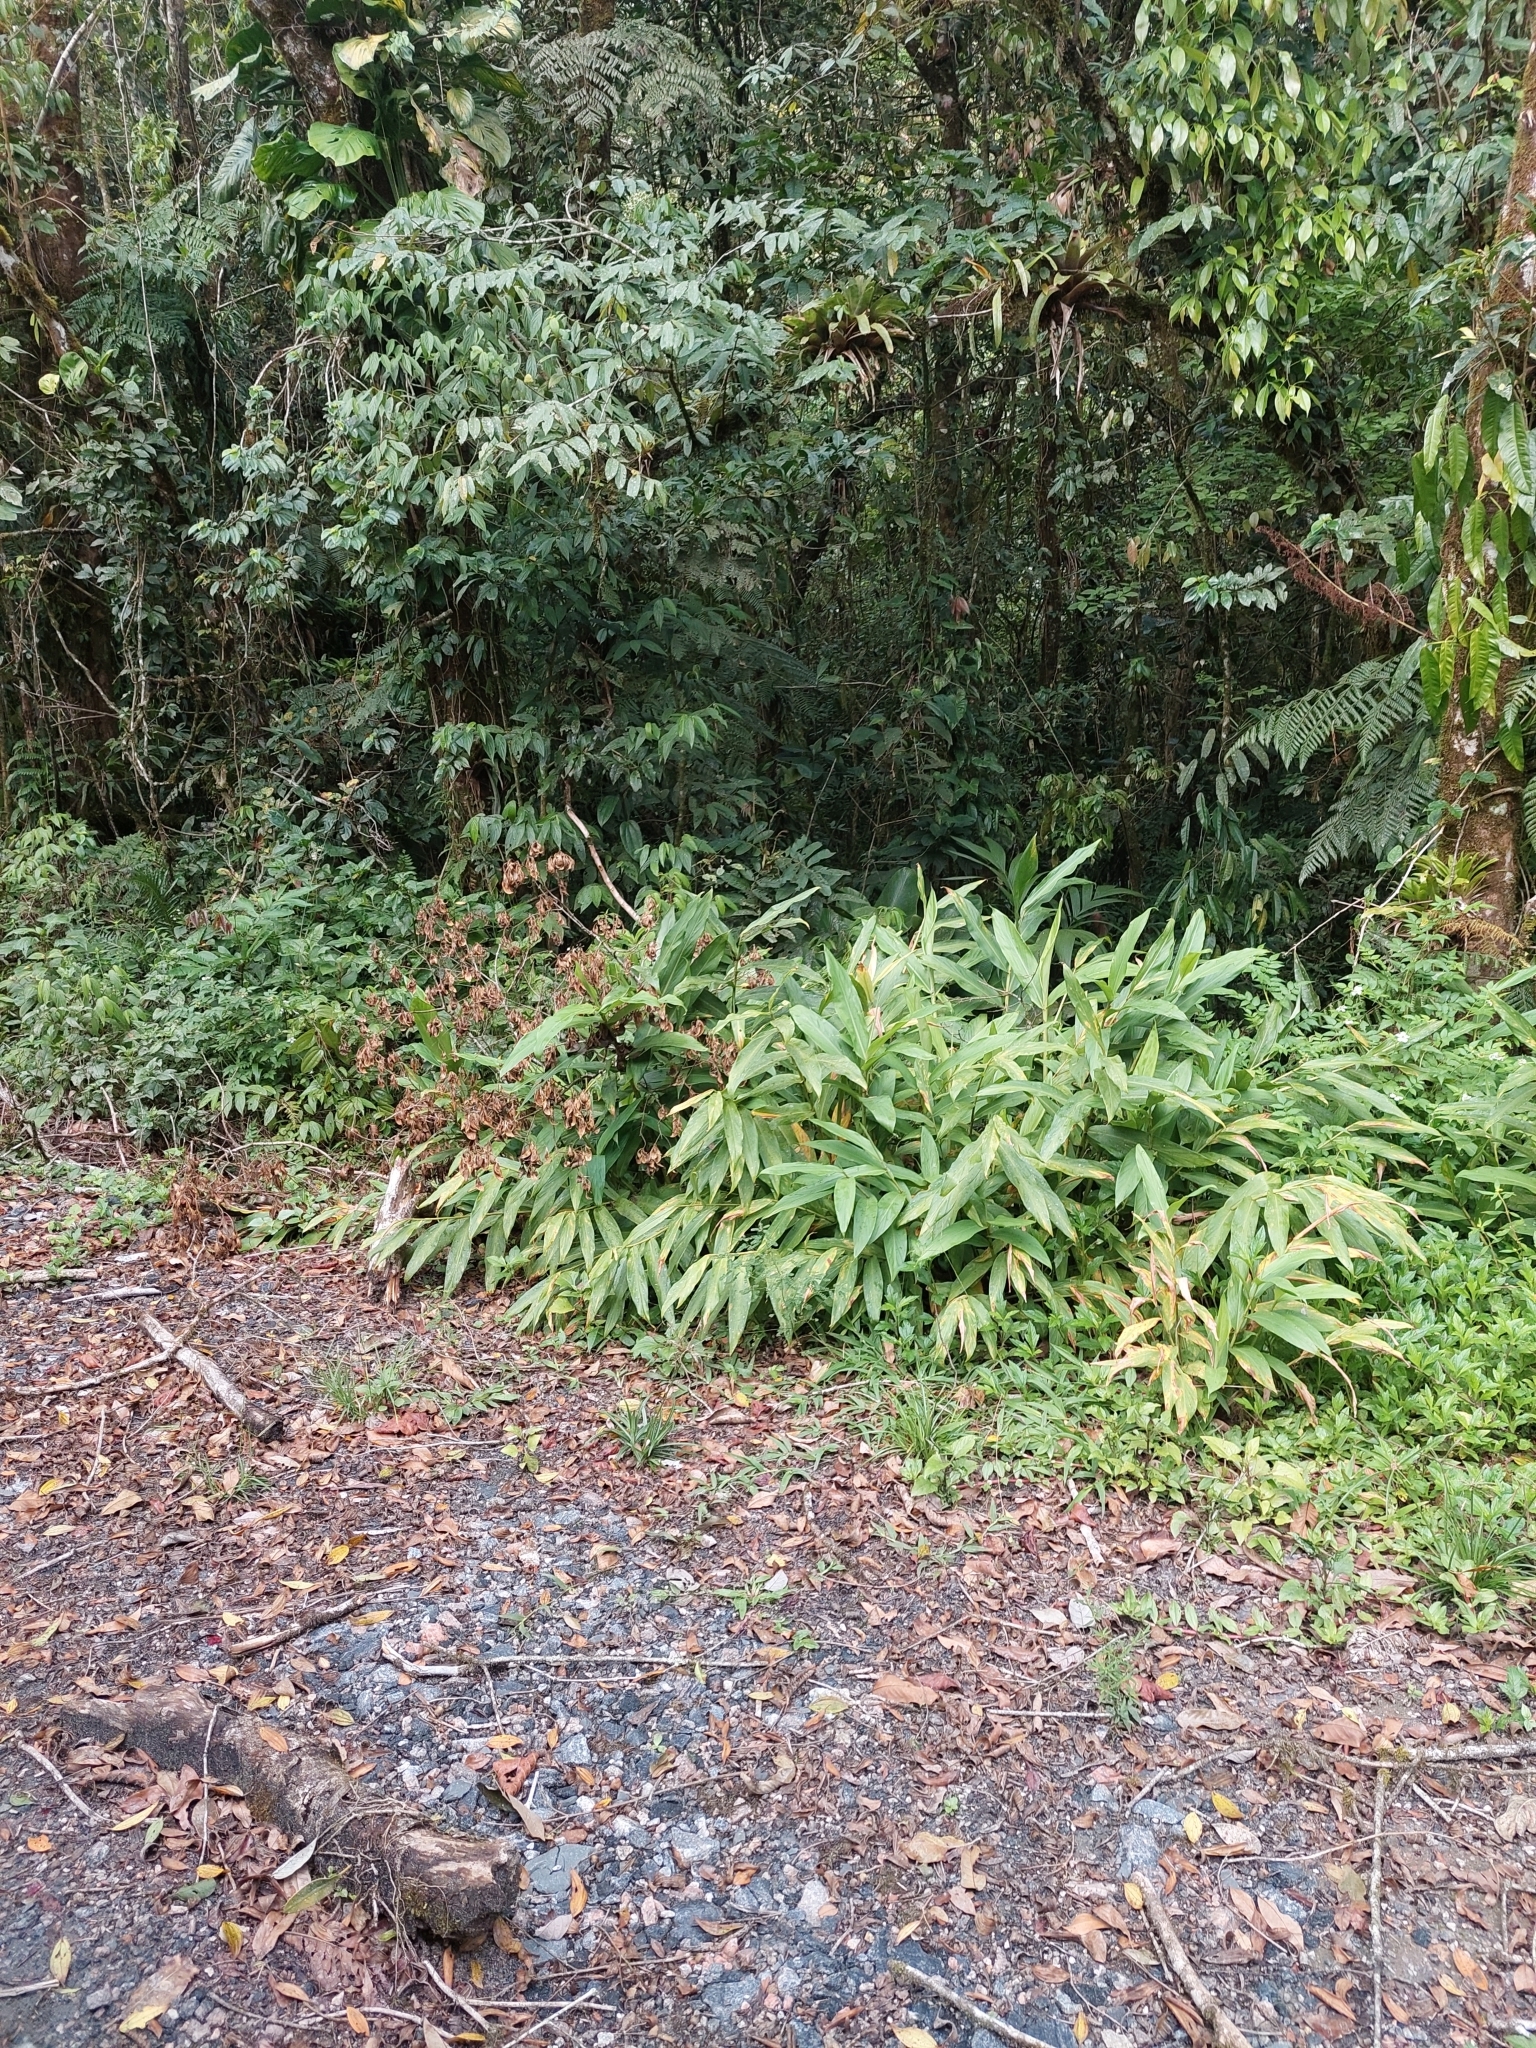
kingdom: Plantae
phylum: Tracheophyta
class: Liliopsida
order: Zingiberales
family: Zingiberaceae
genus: Hedychium
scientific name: Hedychium coronarium
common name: White garland-lily
